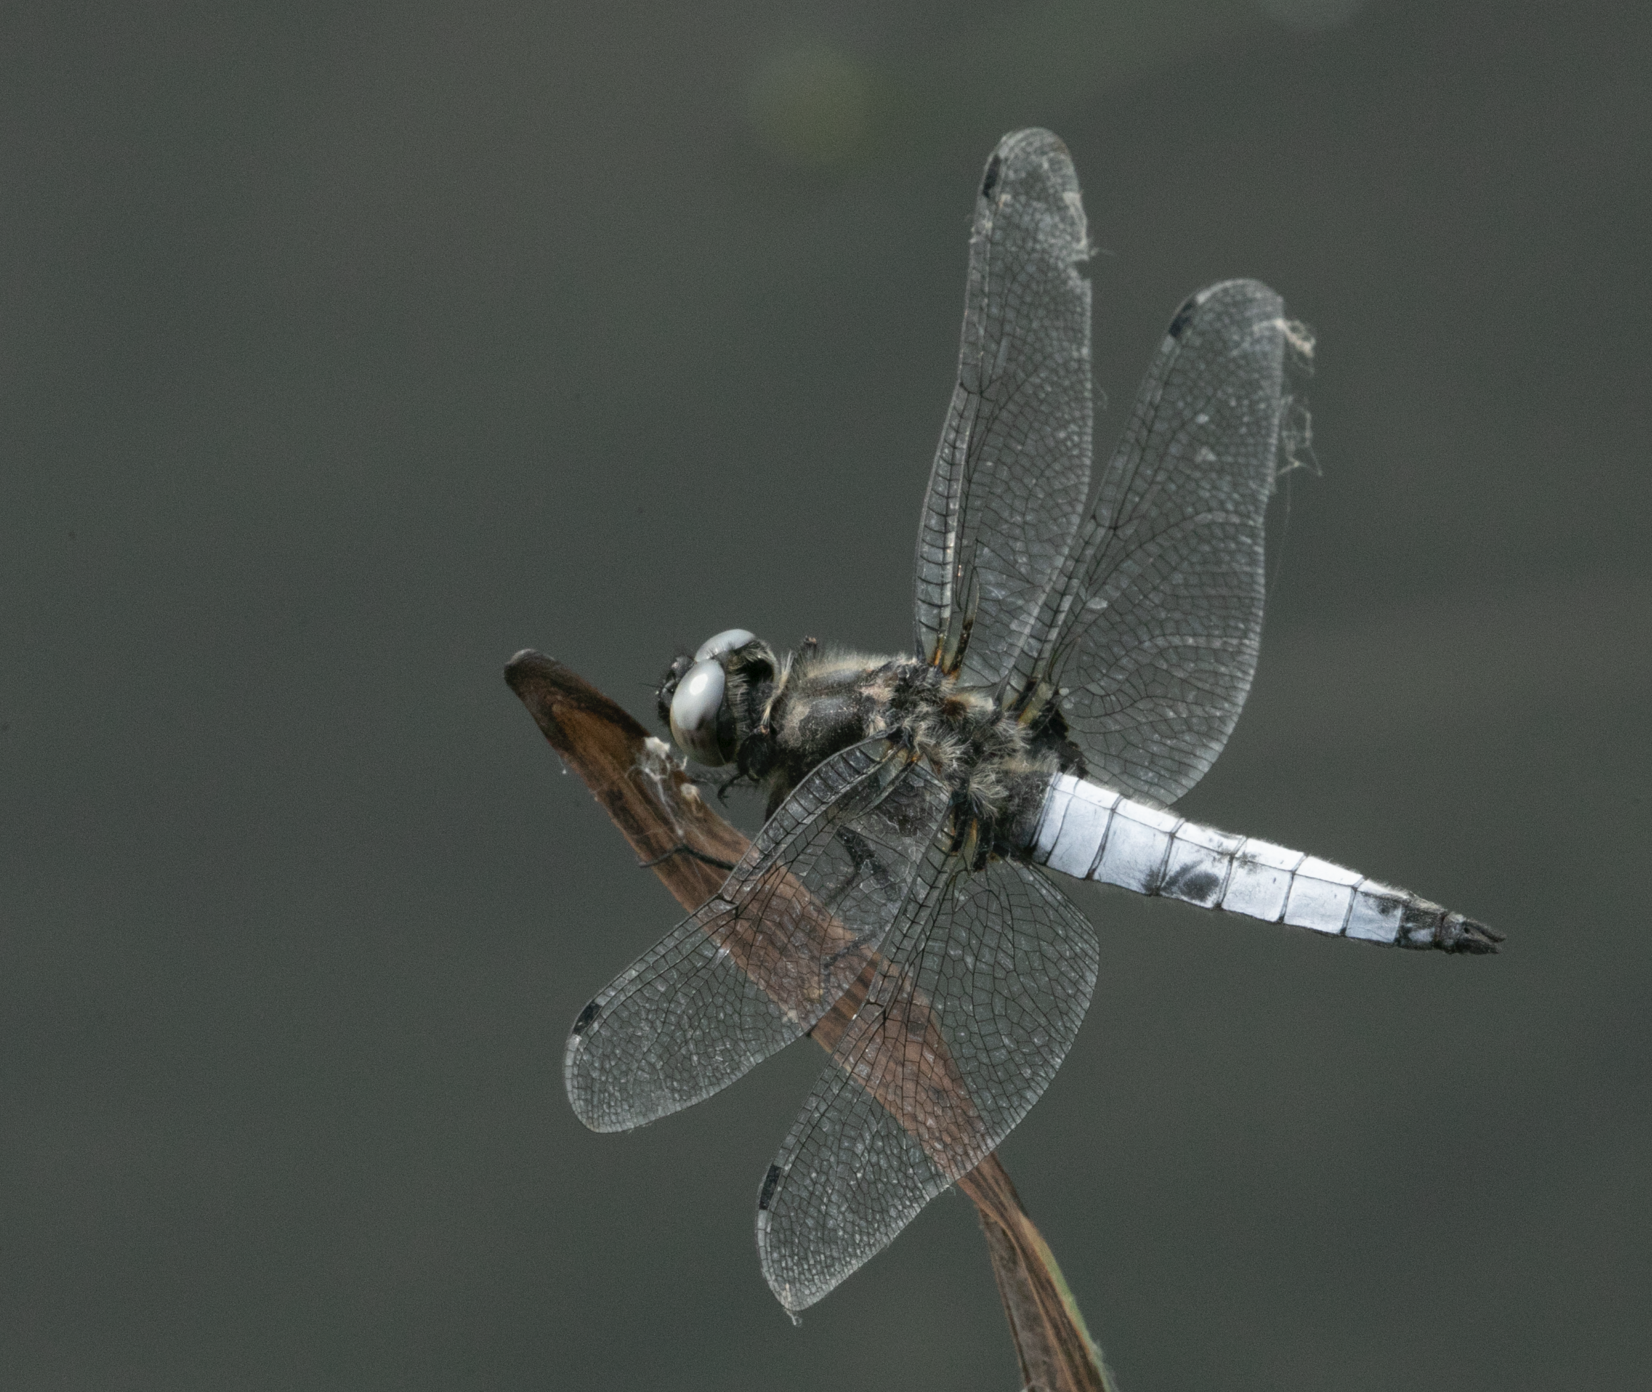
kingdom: Animalia
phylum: Arthropoda
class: Insecta
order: Odonata
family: Libellulidae
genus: Libellula
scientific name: Libellula fulva
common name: Blue chaser
